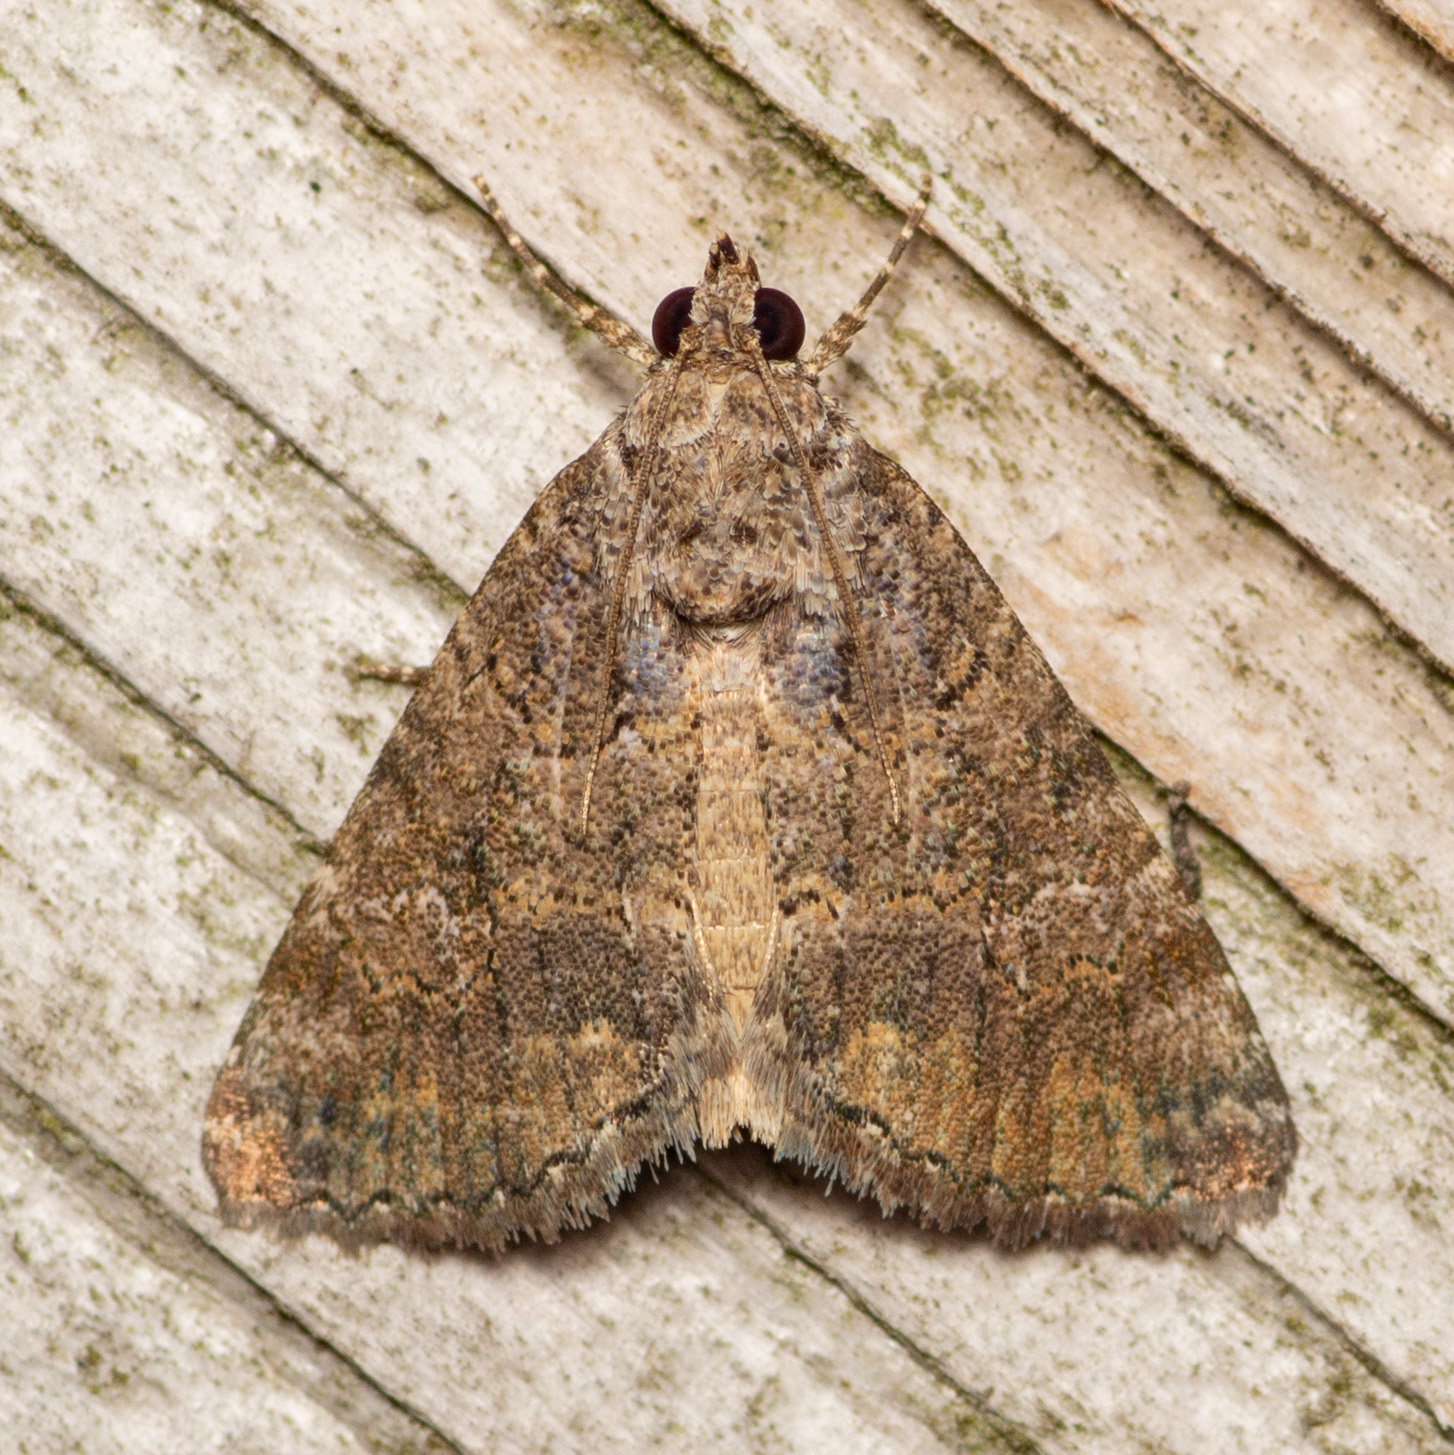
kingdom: Animalia
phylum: Arthropoda
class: Insecta
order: Lepidoptera
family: Erebidae
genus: Eubolina
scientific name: Eubolina impartialis
